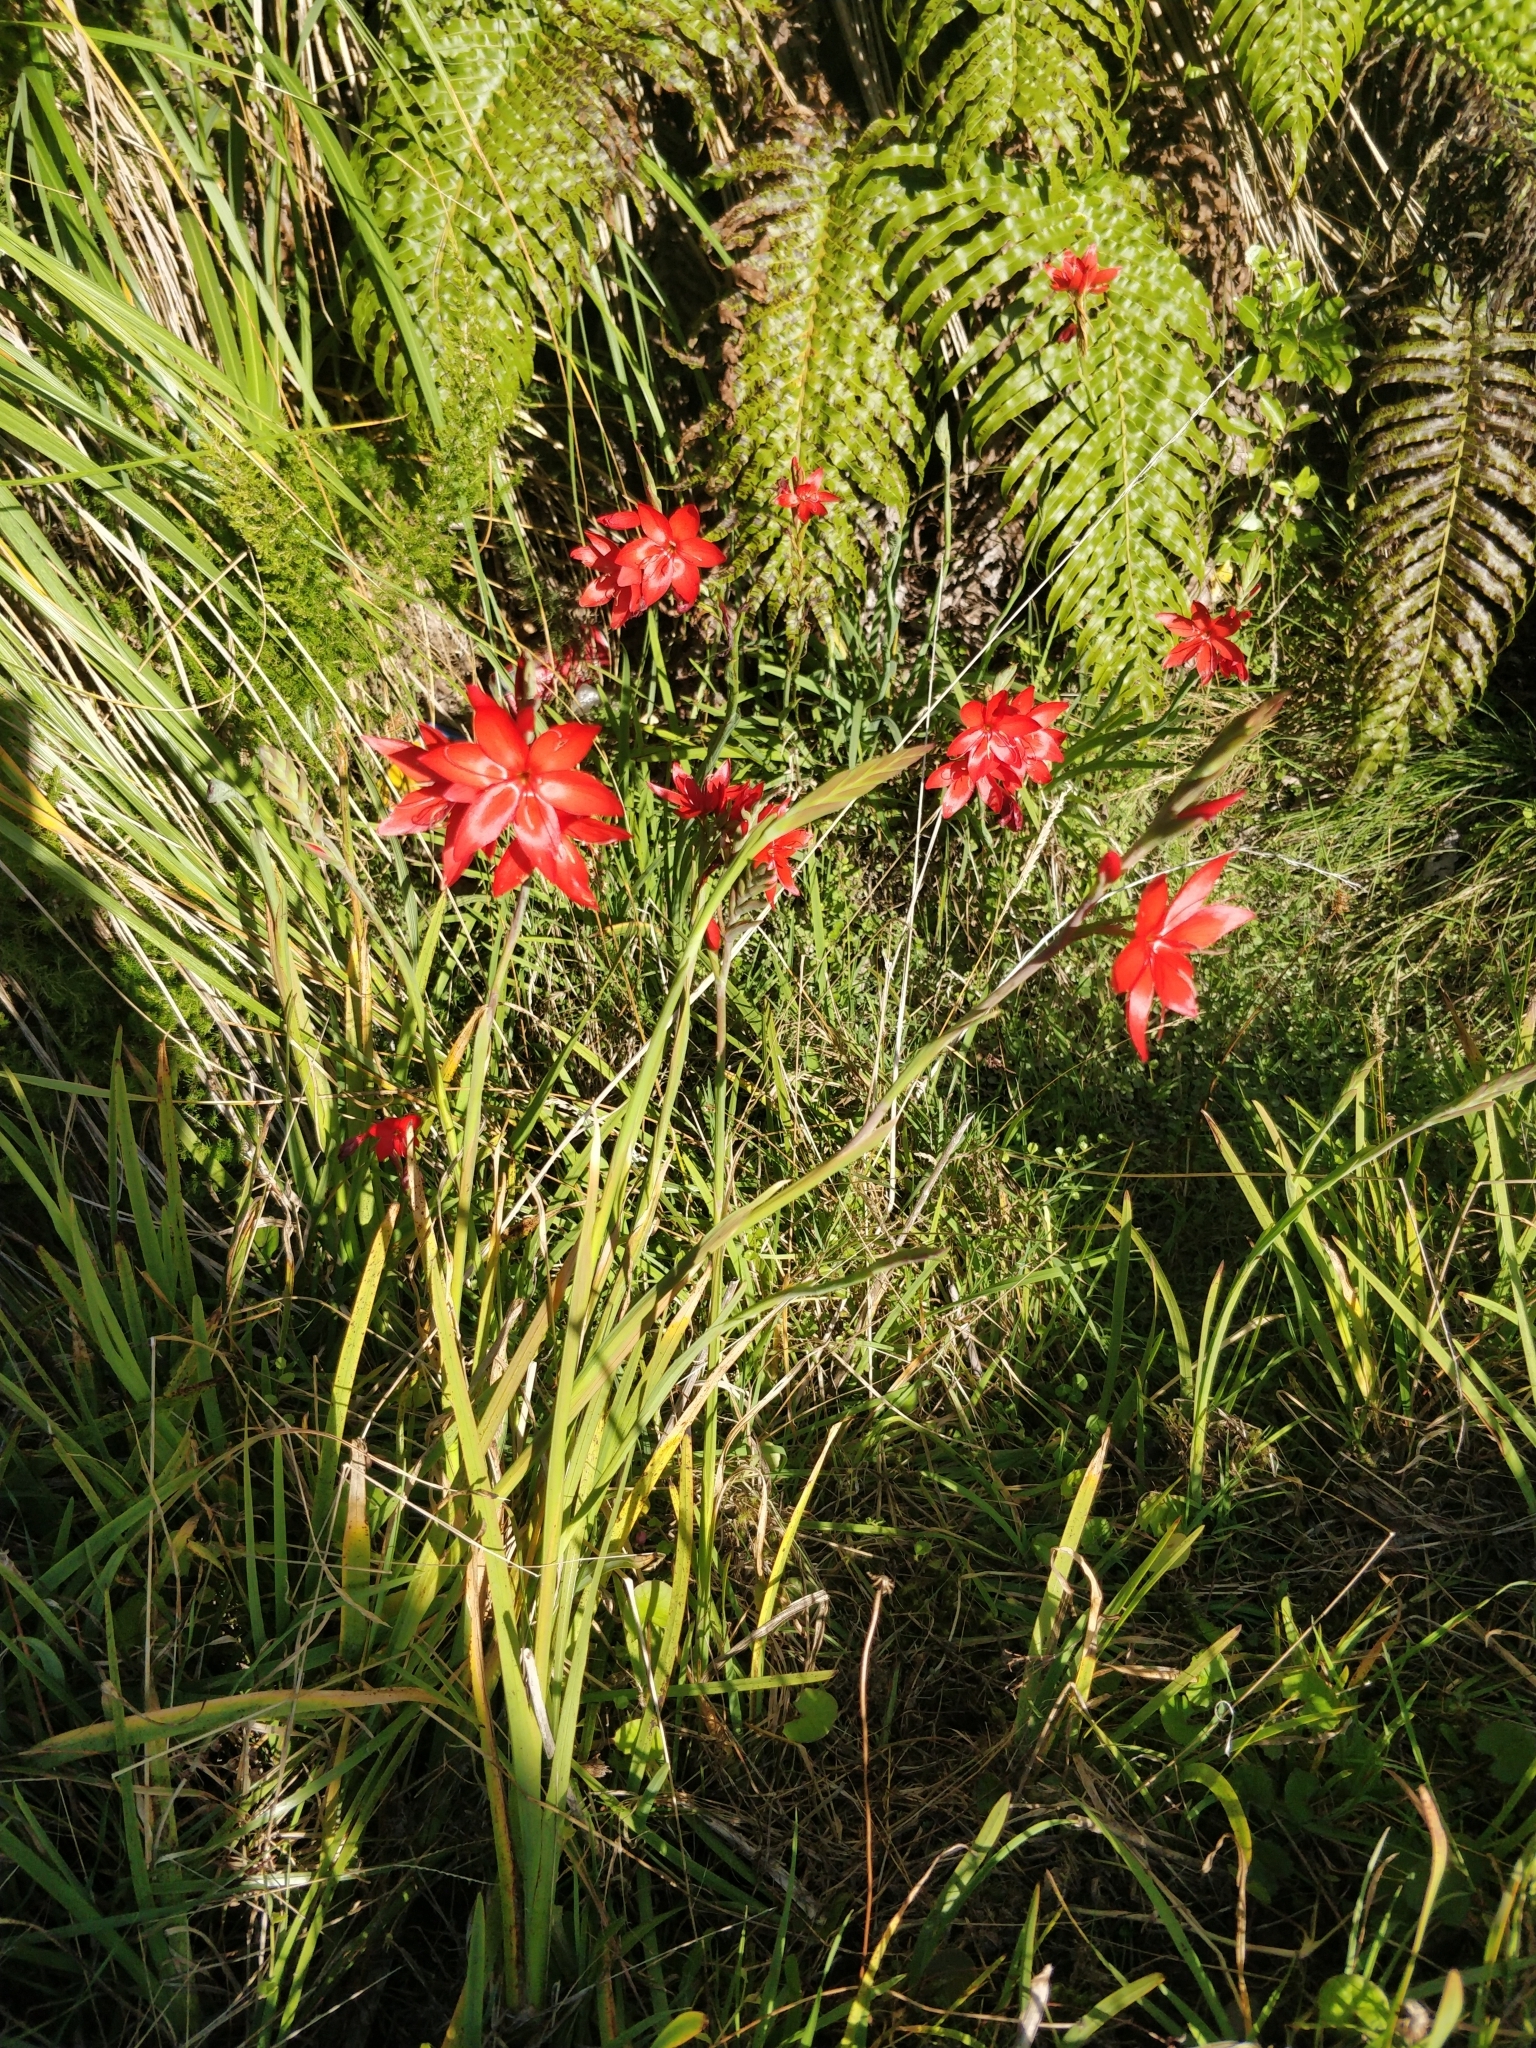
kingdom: Plantae
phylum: Tracheophyta
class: Liliopsida
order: Asparagales
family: Iridaceae
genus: Hesperantha
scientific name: Hesperantha coccinea
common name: River-lily
